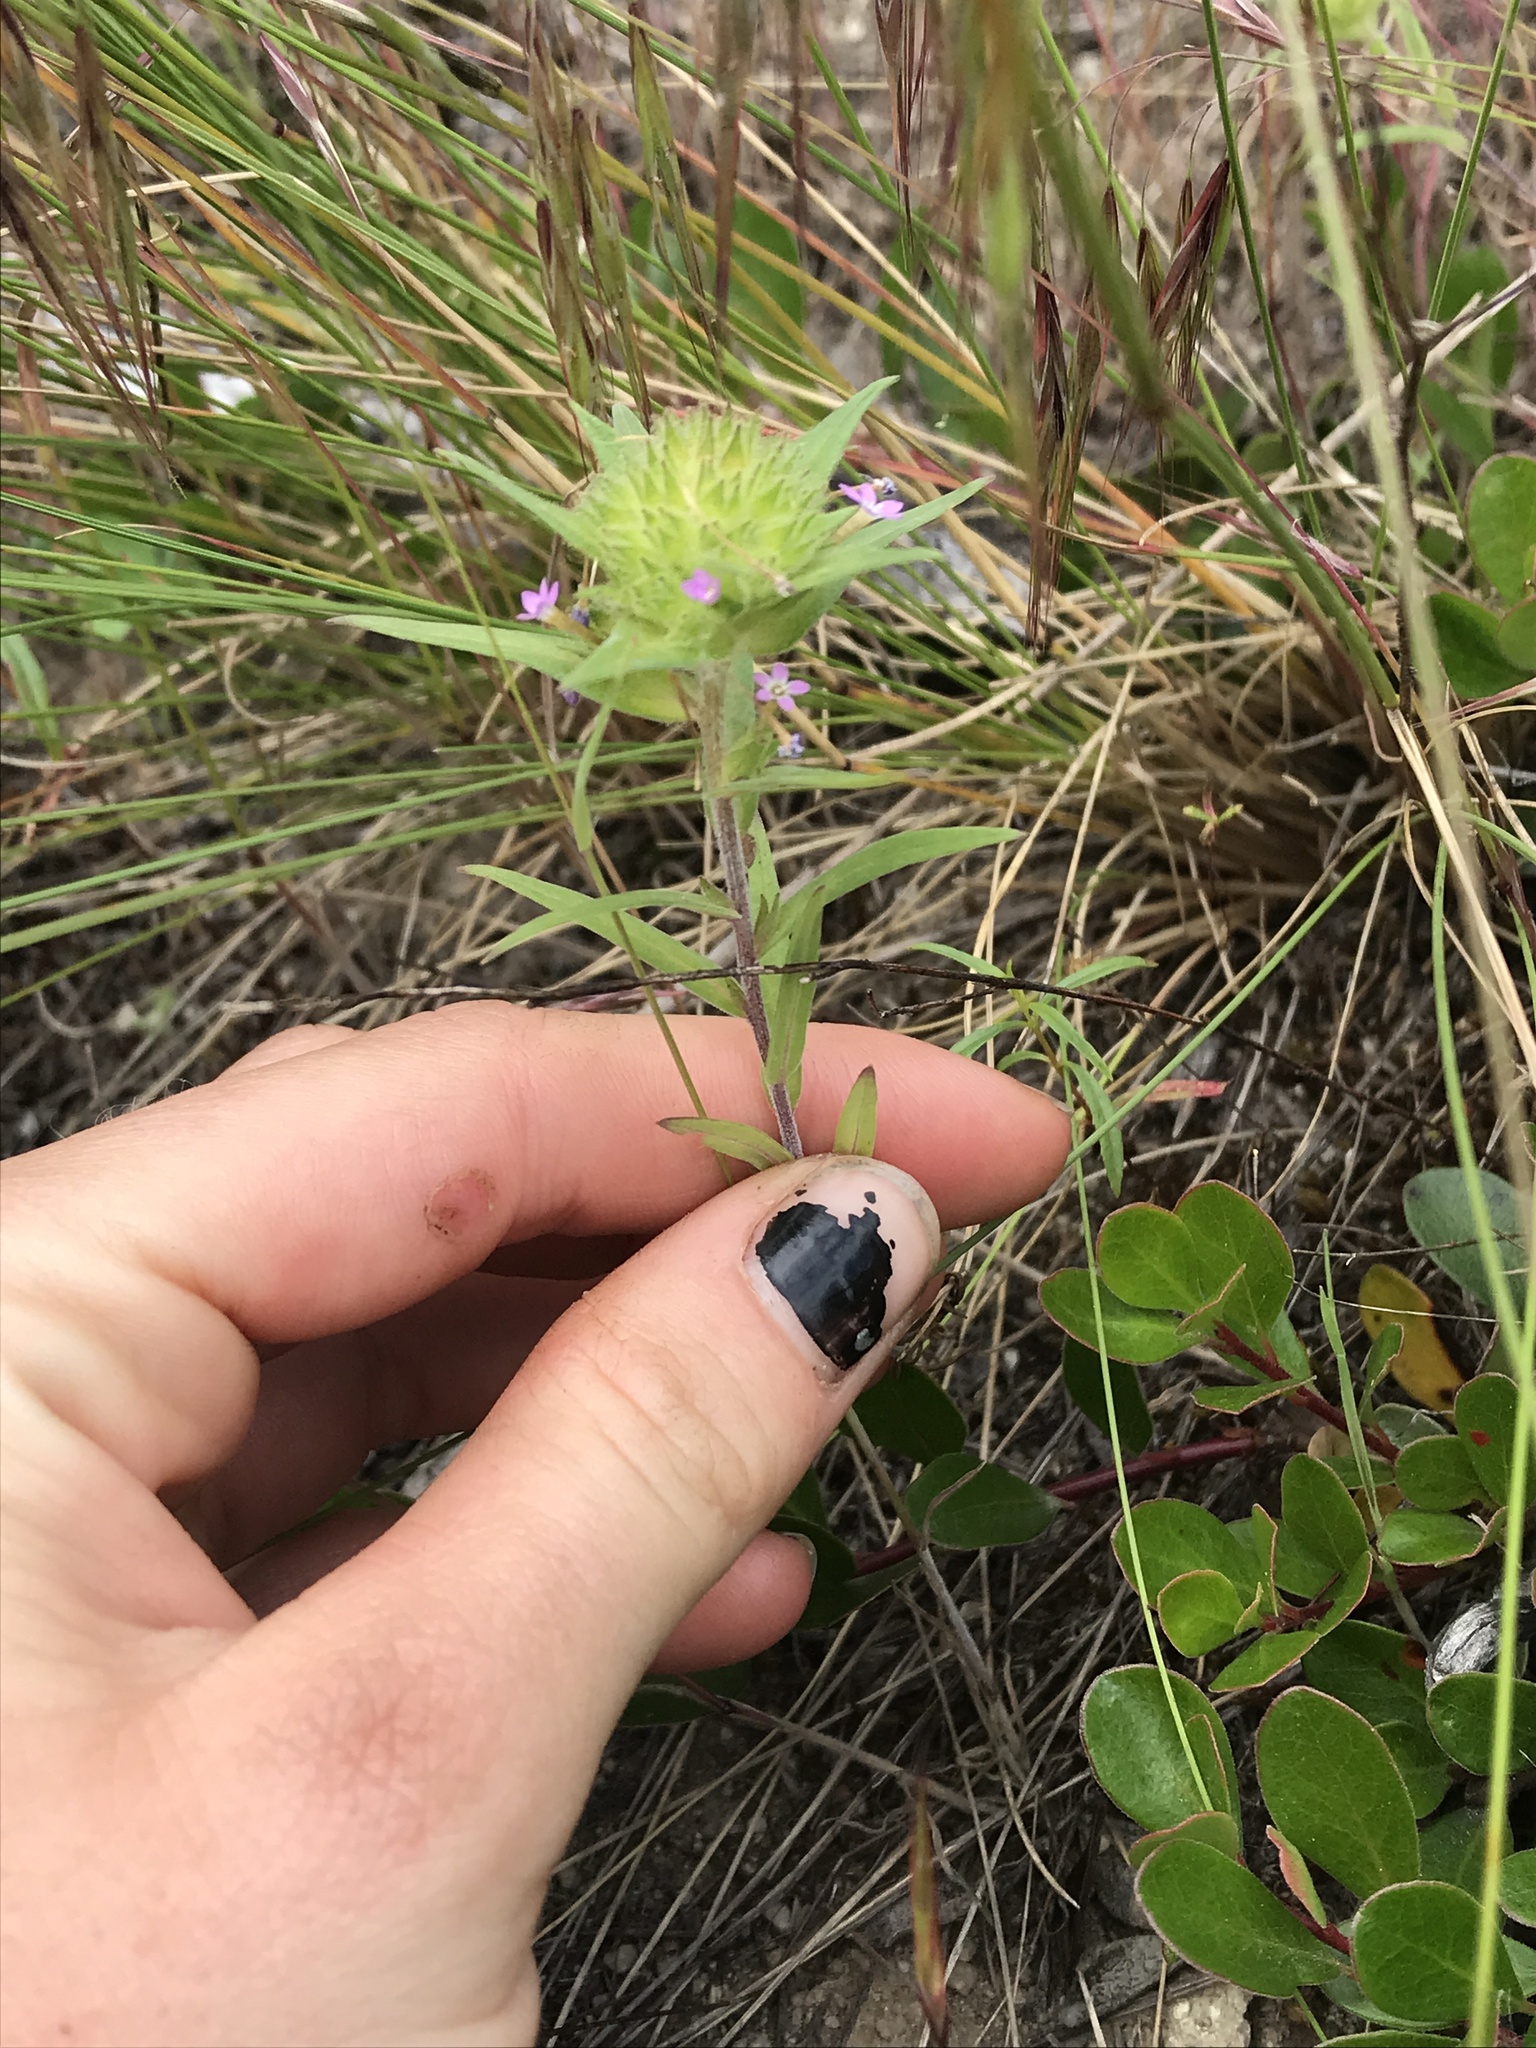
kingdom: Plantae
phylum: Tracheophyta
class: Magnoliopsida
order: Ericales
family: Polemoniaceae
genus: Collomia
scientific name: Collomia linearis
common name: Tiny trumpet
